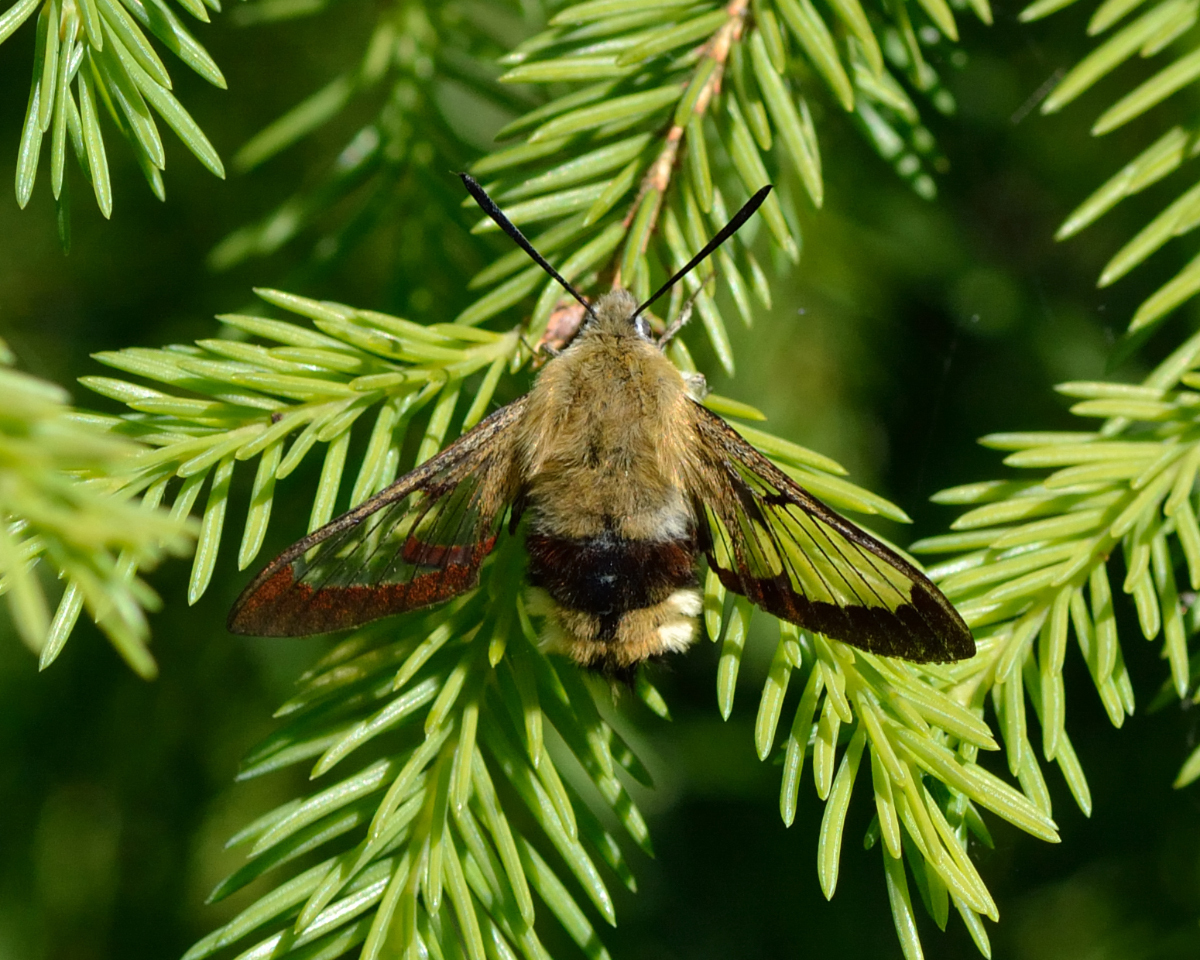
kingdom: Animalia
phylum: Arthropoda
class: Insecta
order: Lepidoptera
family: Sphingidae
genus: Hemaris
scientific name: Hemaris fuciformis
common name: Broad-bordered bee hawk-moth
